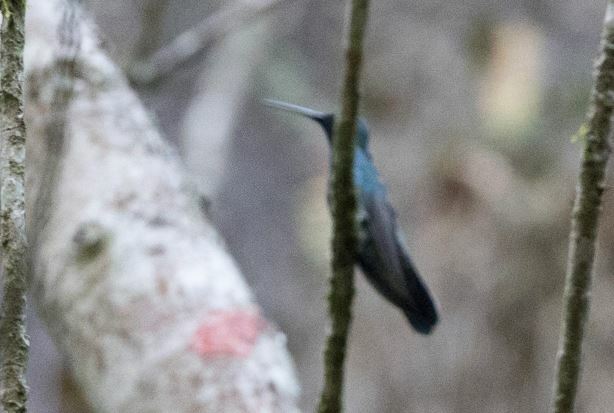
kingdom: Animalia
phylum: Chordata
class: Aves
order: Apodiformes
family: Trochilidae
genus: Colibri
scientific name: Colibri coruscans
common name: Sparkling violetear
